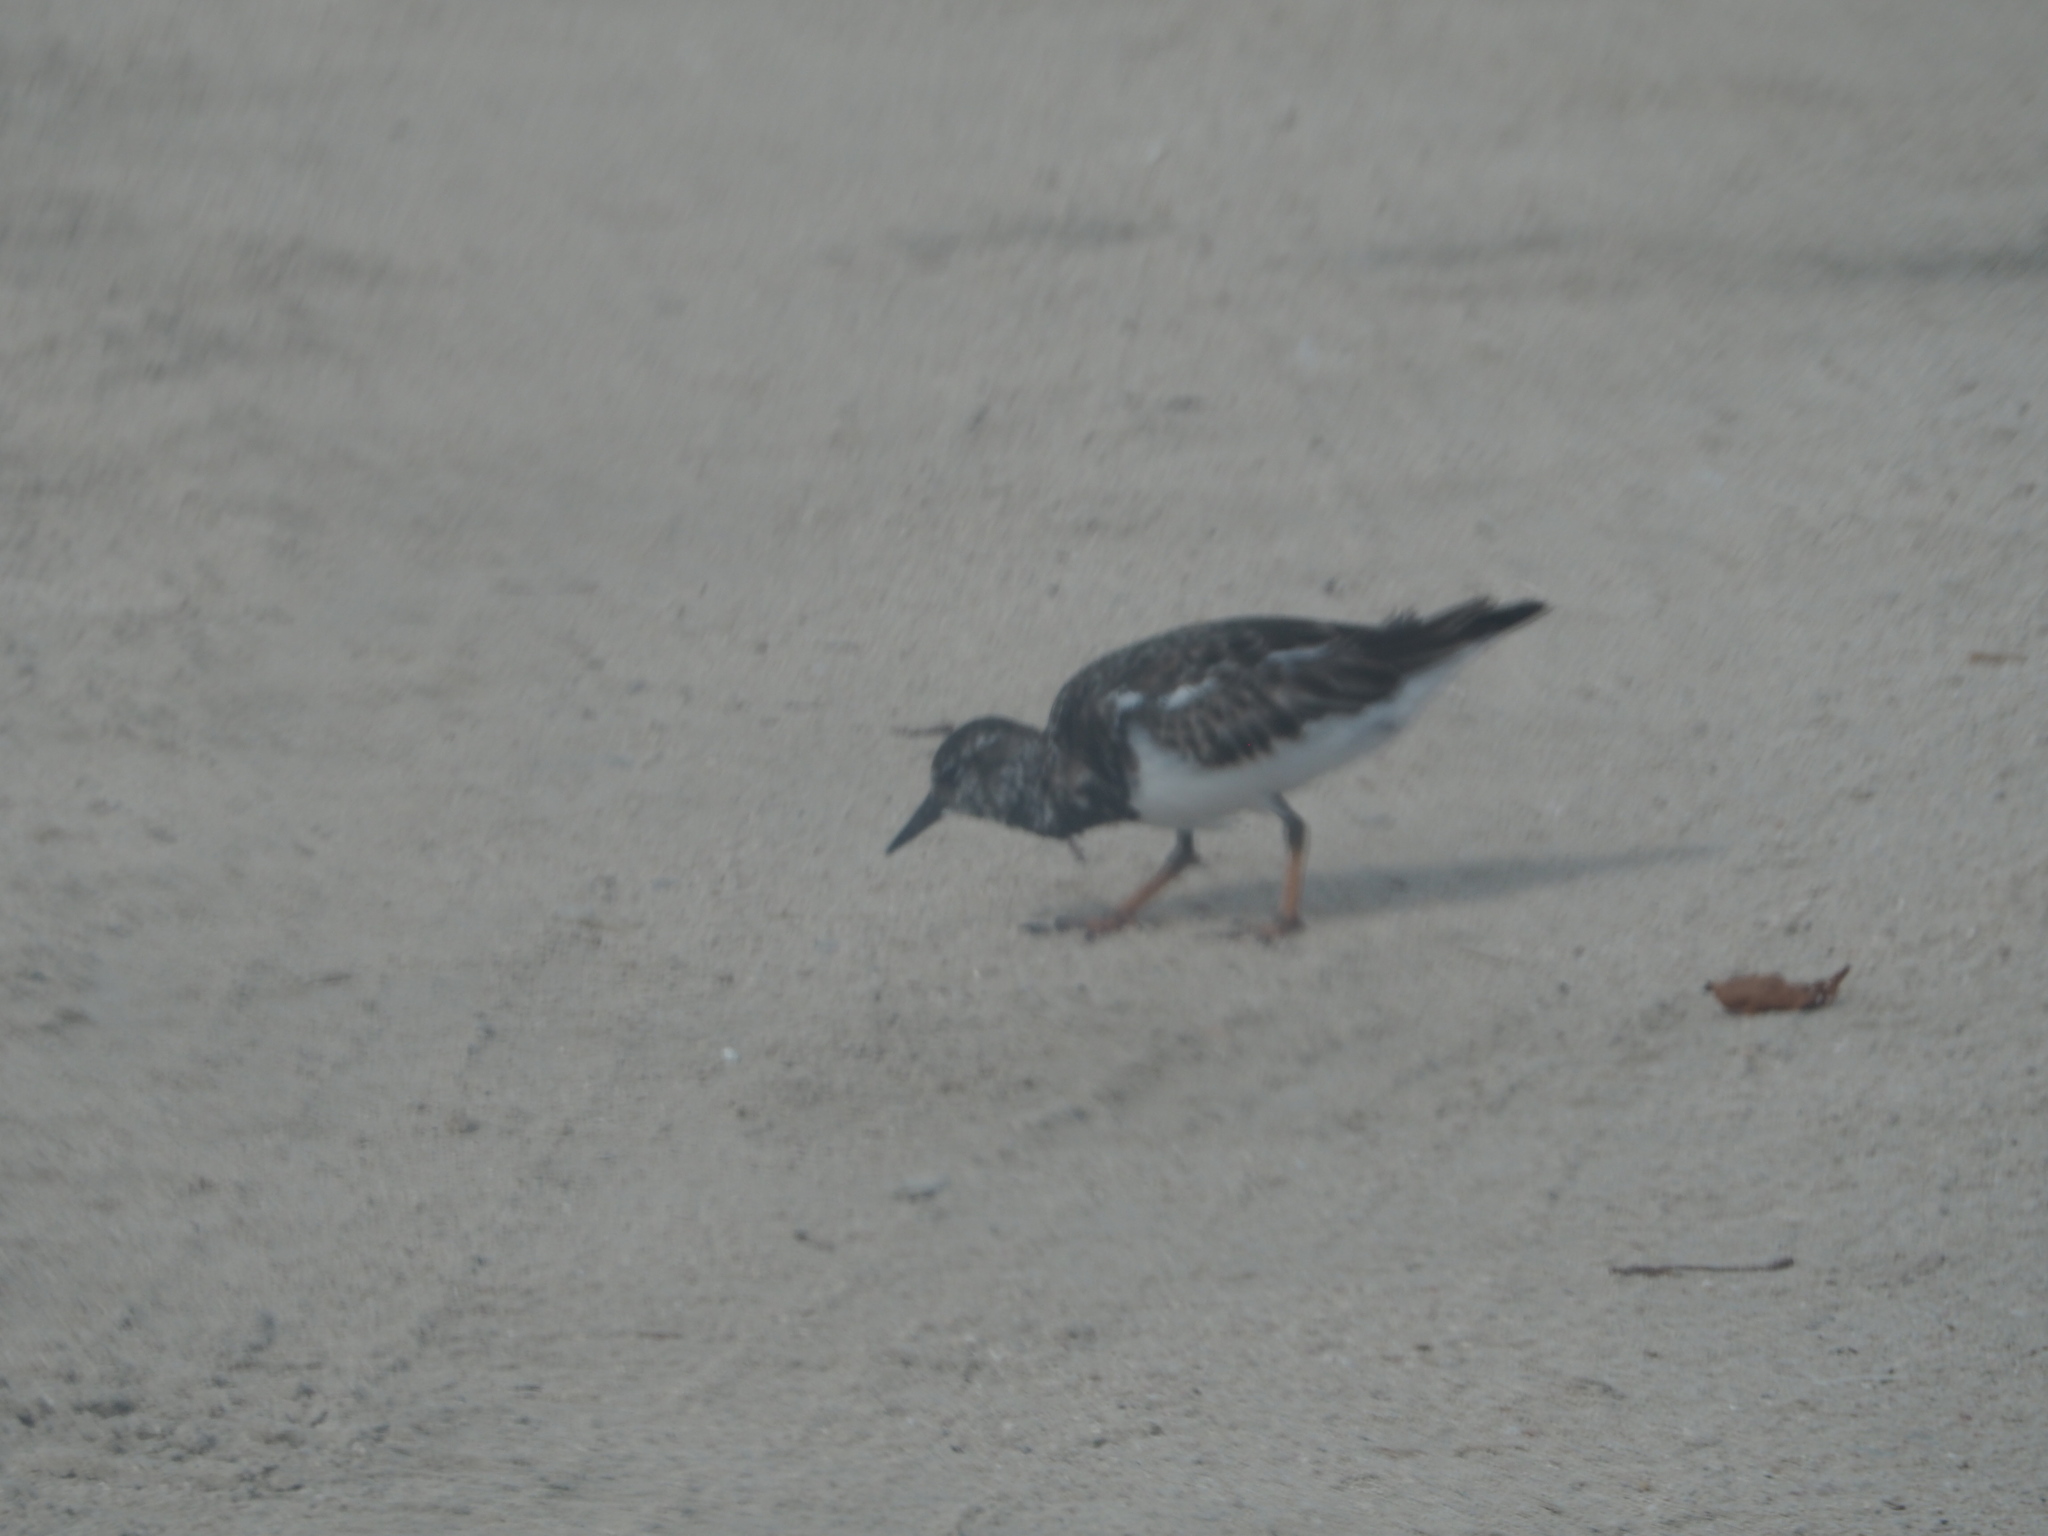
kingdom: Animalia
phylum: Chordata
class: Aves
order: Charadriiformes
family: Scolopacidae
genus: Arenaria
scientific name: Arenaria interpres
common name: Ruddy turnstone
